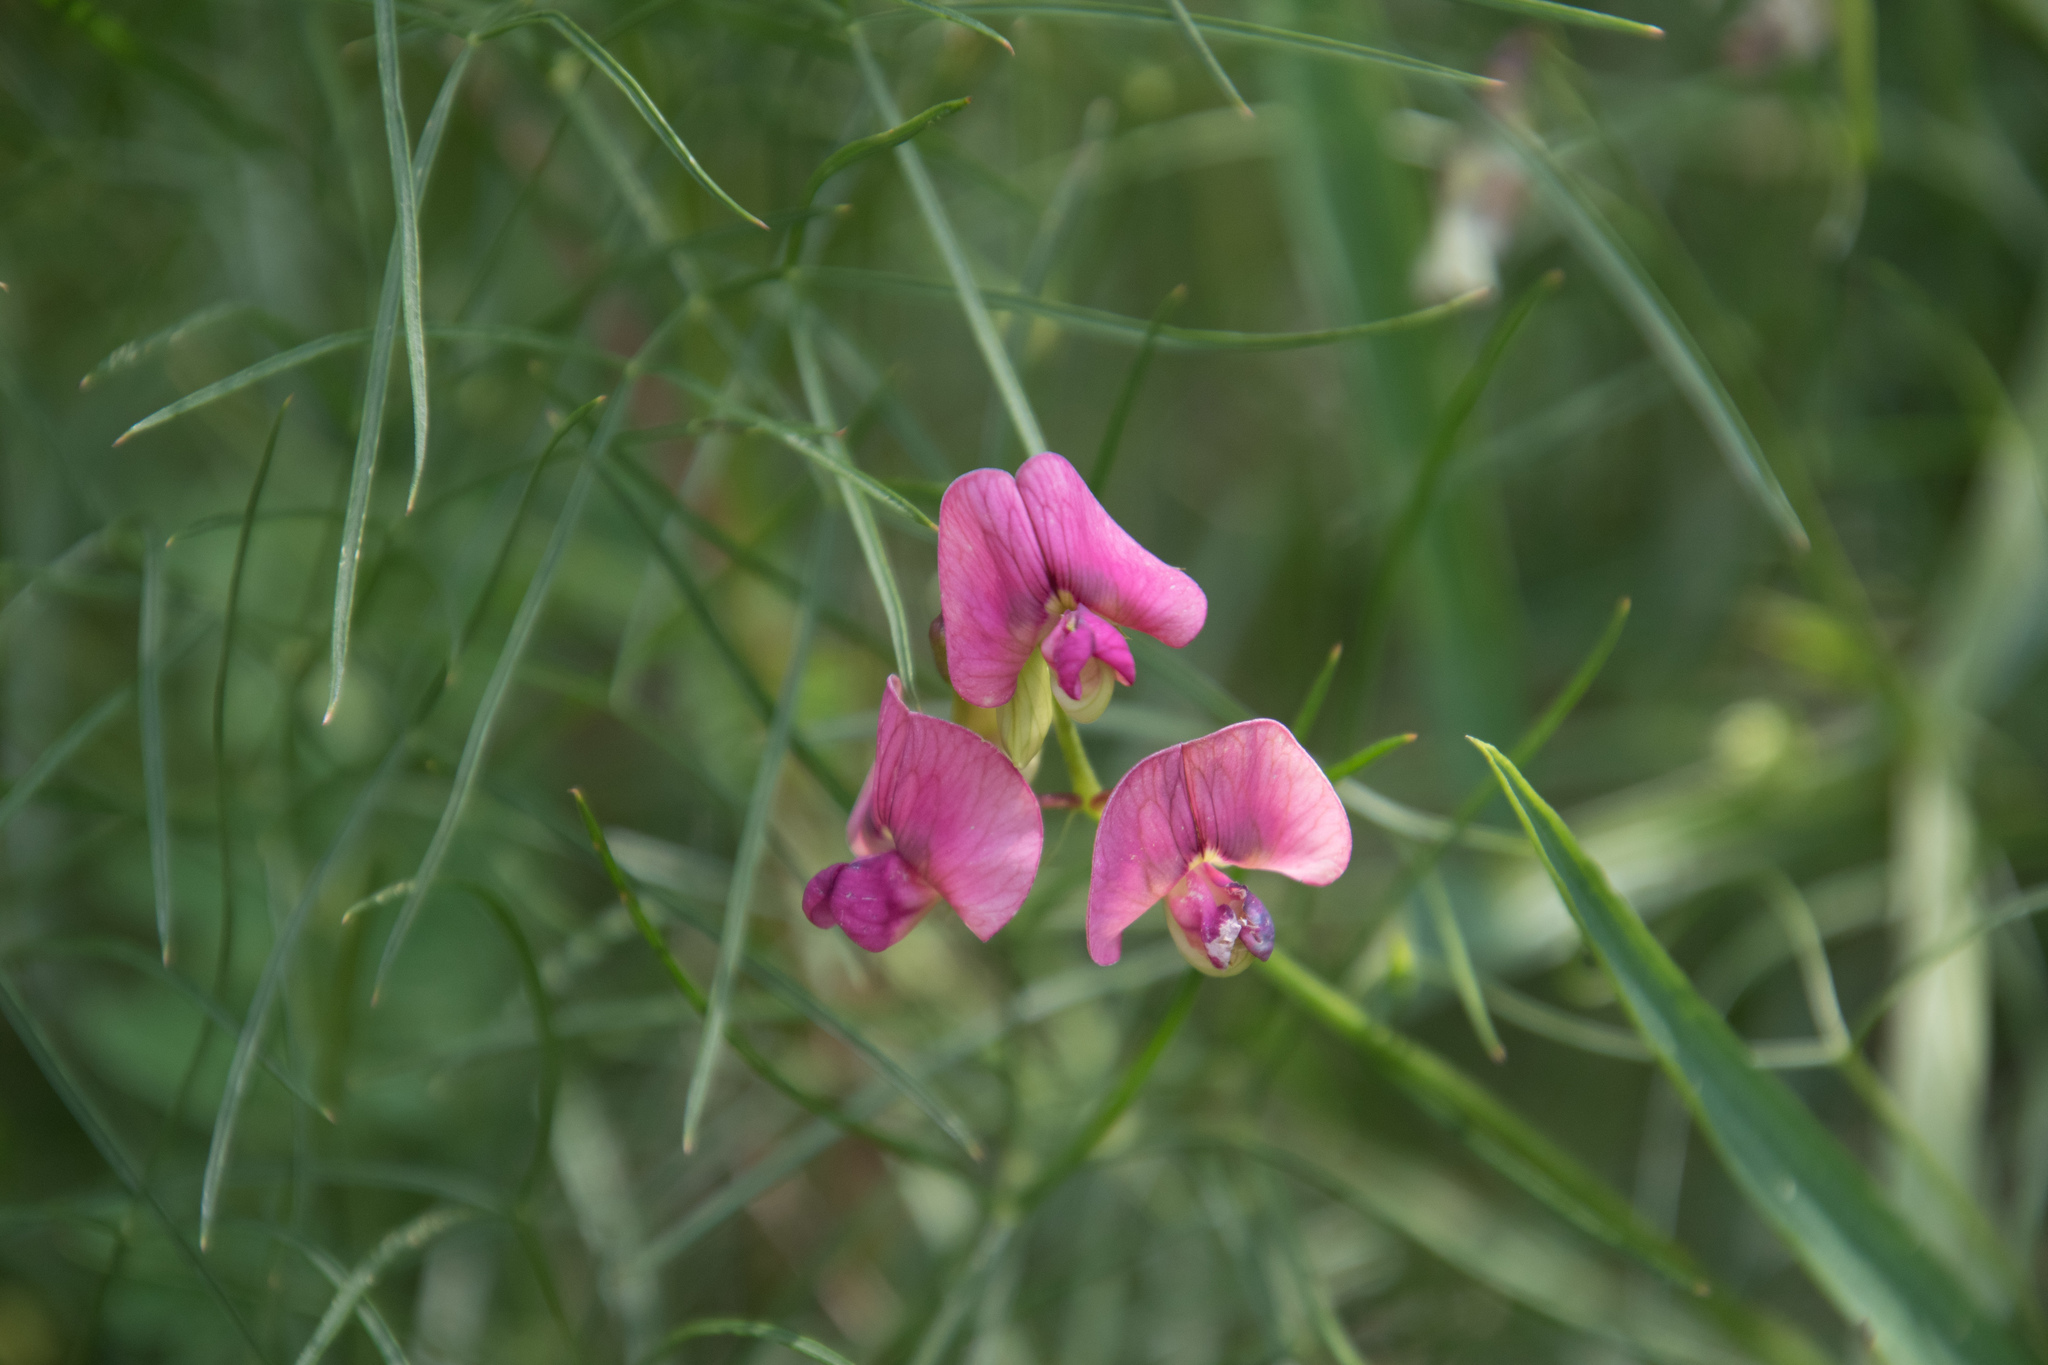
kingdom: Plantae
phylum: Tracheophyta
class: Magnoliopsida
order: Fabales
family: Fabaceae
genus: Lathyrus
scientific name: Lathyrus sylvestris
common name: Flat pea
